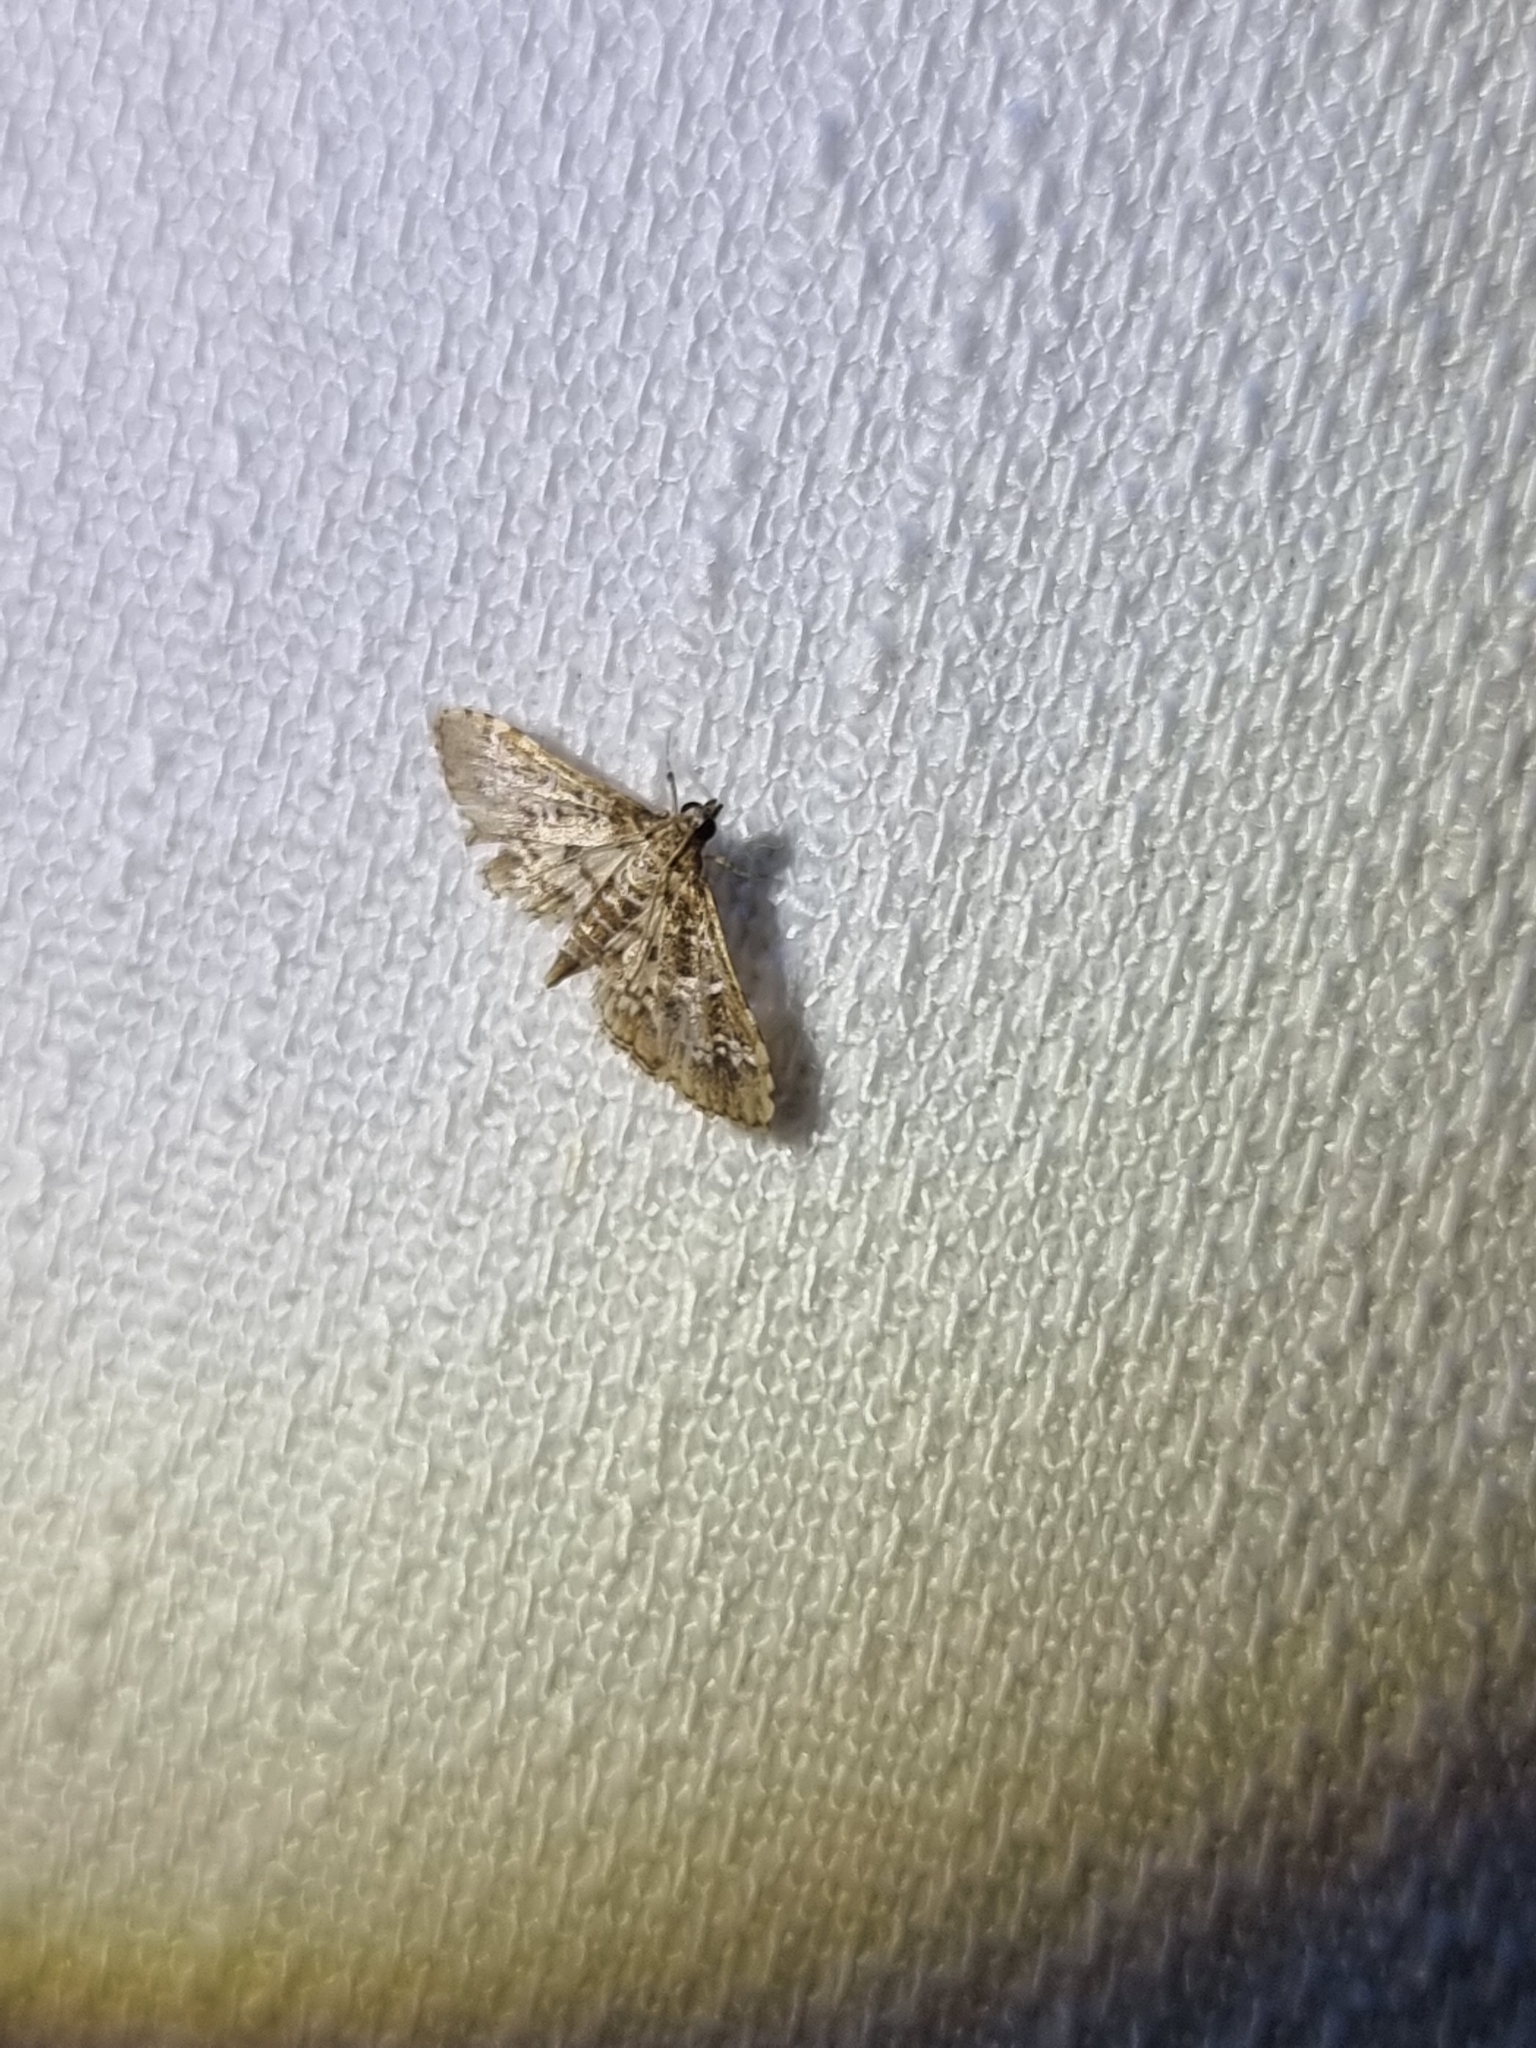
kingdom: Animalia
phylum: Arthropoda
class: Insecta
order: Lepidoptera
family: Crambidae
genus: Samea
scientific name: Samea multiplicalis
